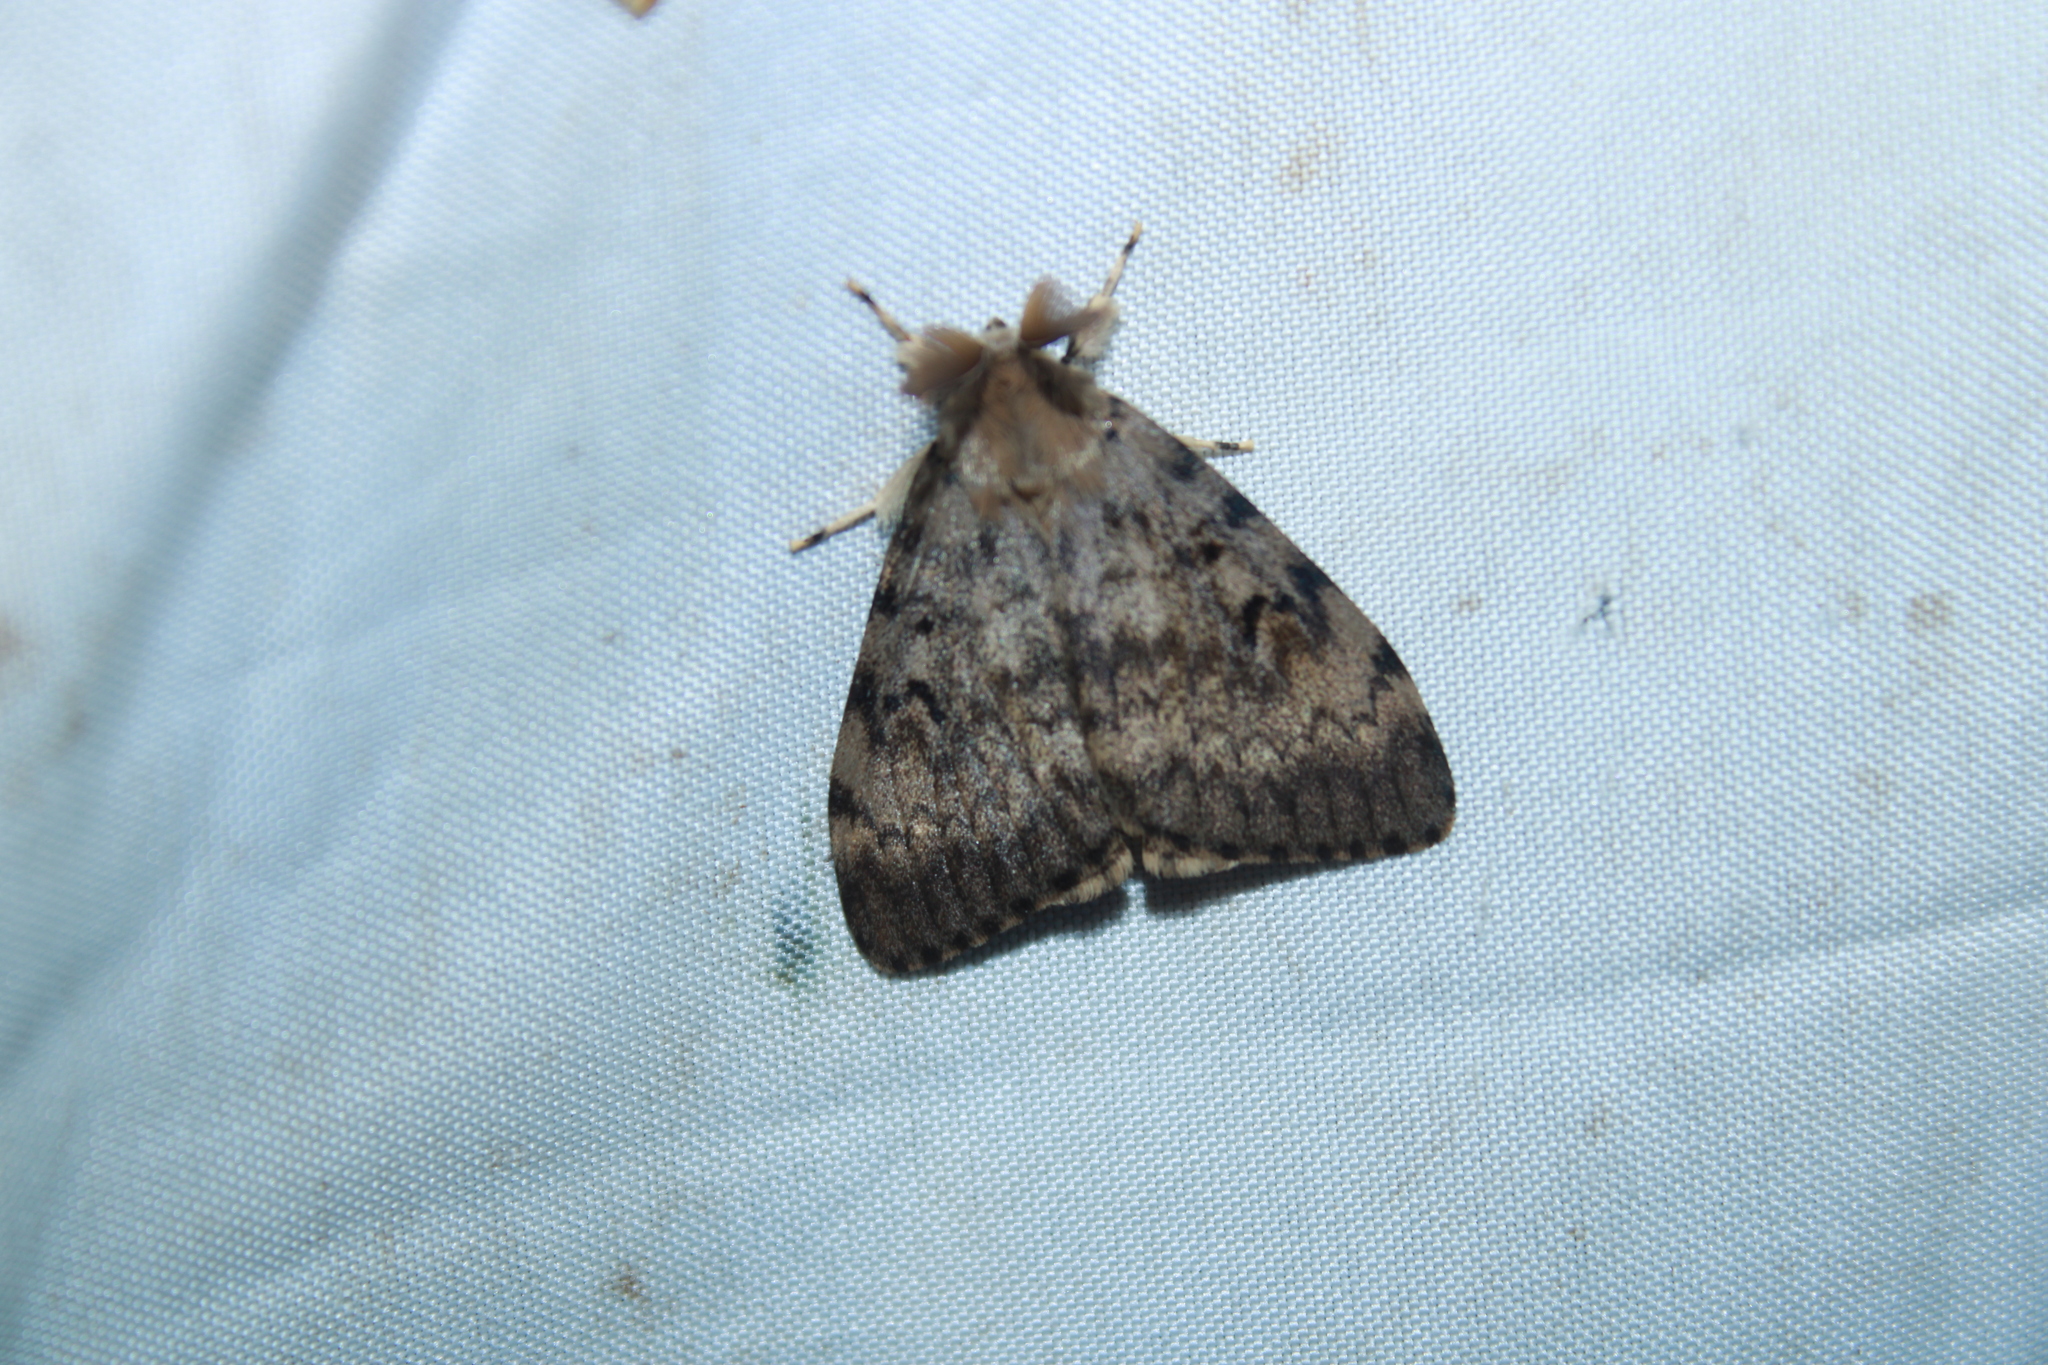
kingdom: Animalia
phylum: Arthropoda
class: Insecta
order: Lepidoptera
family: Erebidae
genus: Lymantria
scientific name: Lymantria dispar
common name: Gypsy moth
